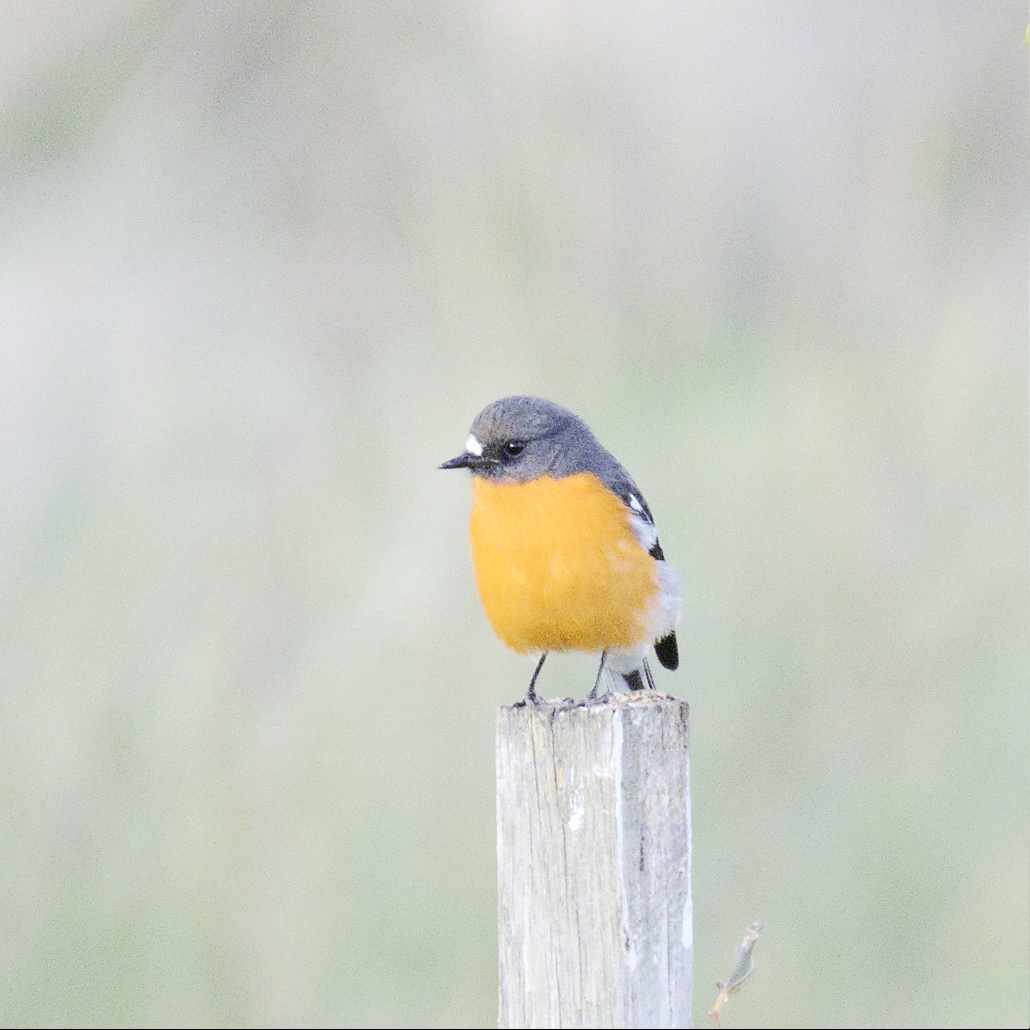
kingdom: Animalia
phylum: Chordata
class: Aves
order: Passeriformes
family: Petroicidae
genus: Petroica
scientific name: Petroica phoenicea
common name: Flame robin
